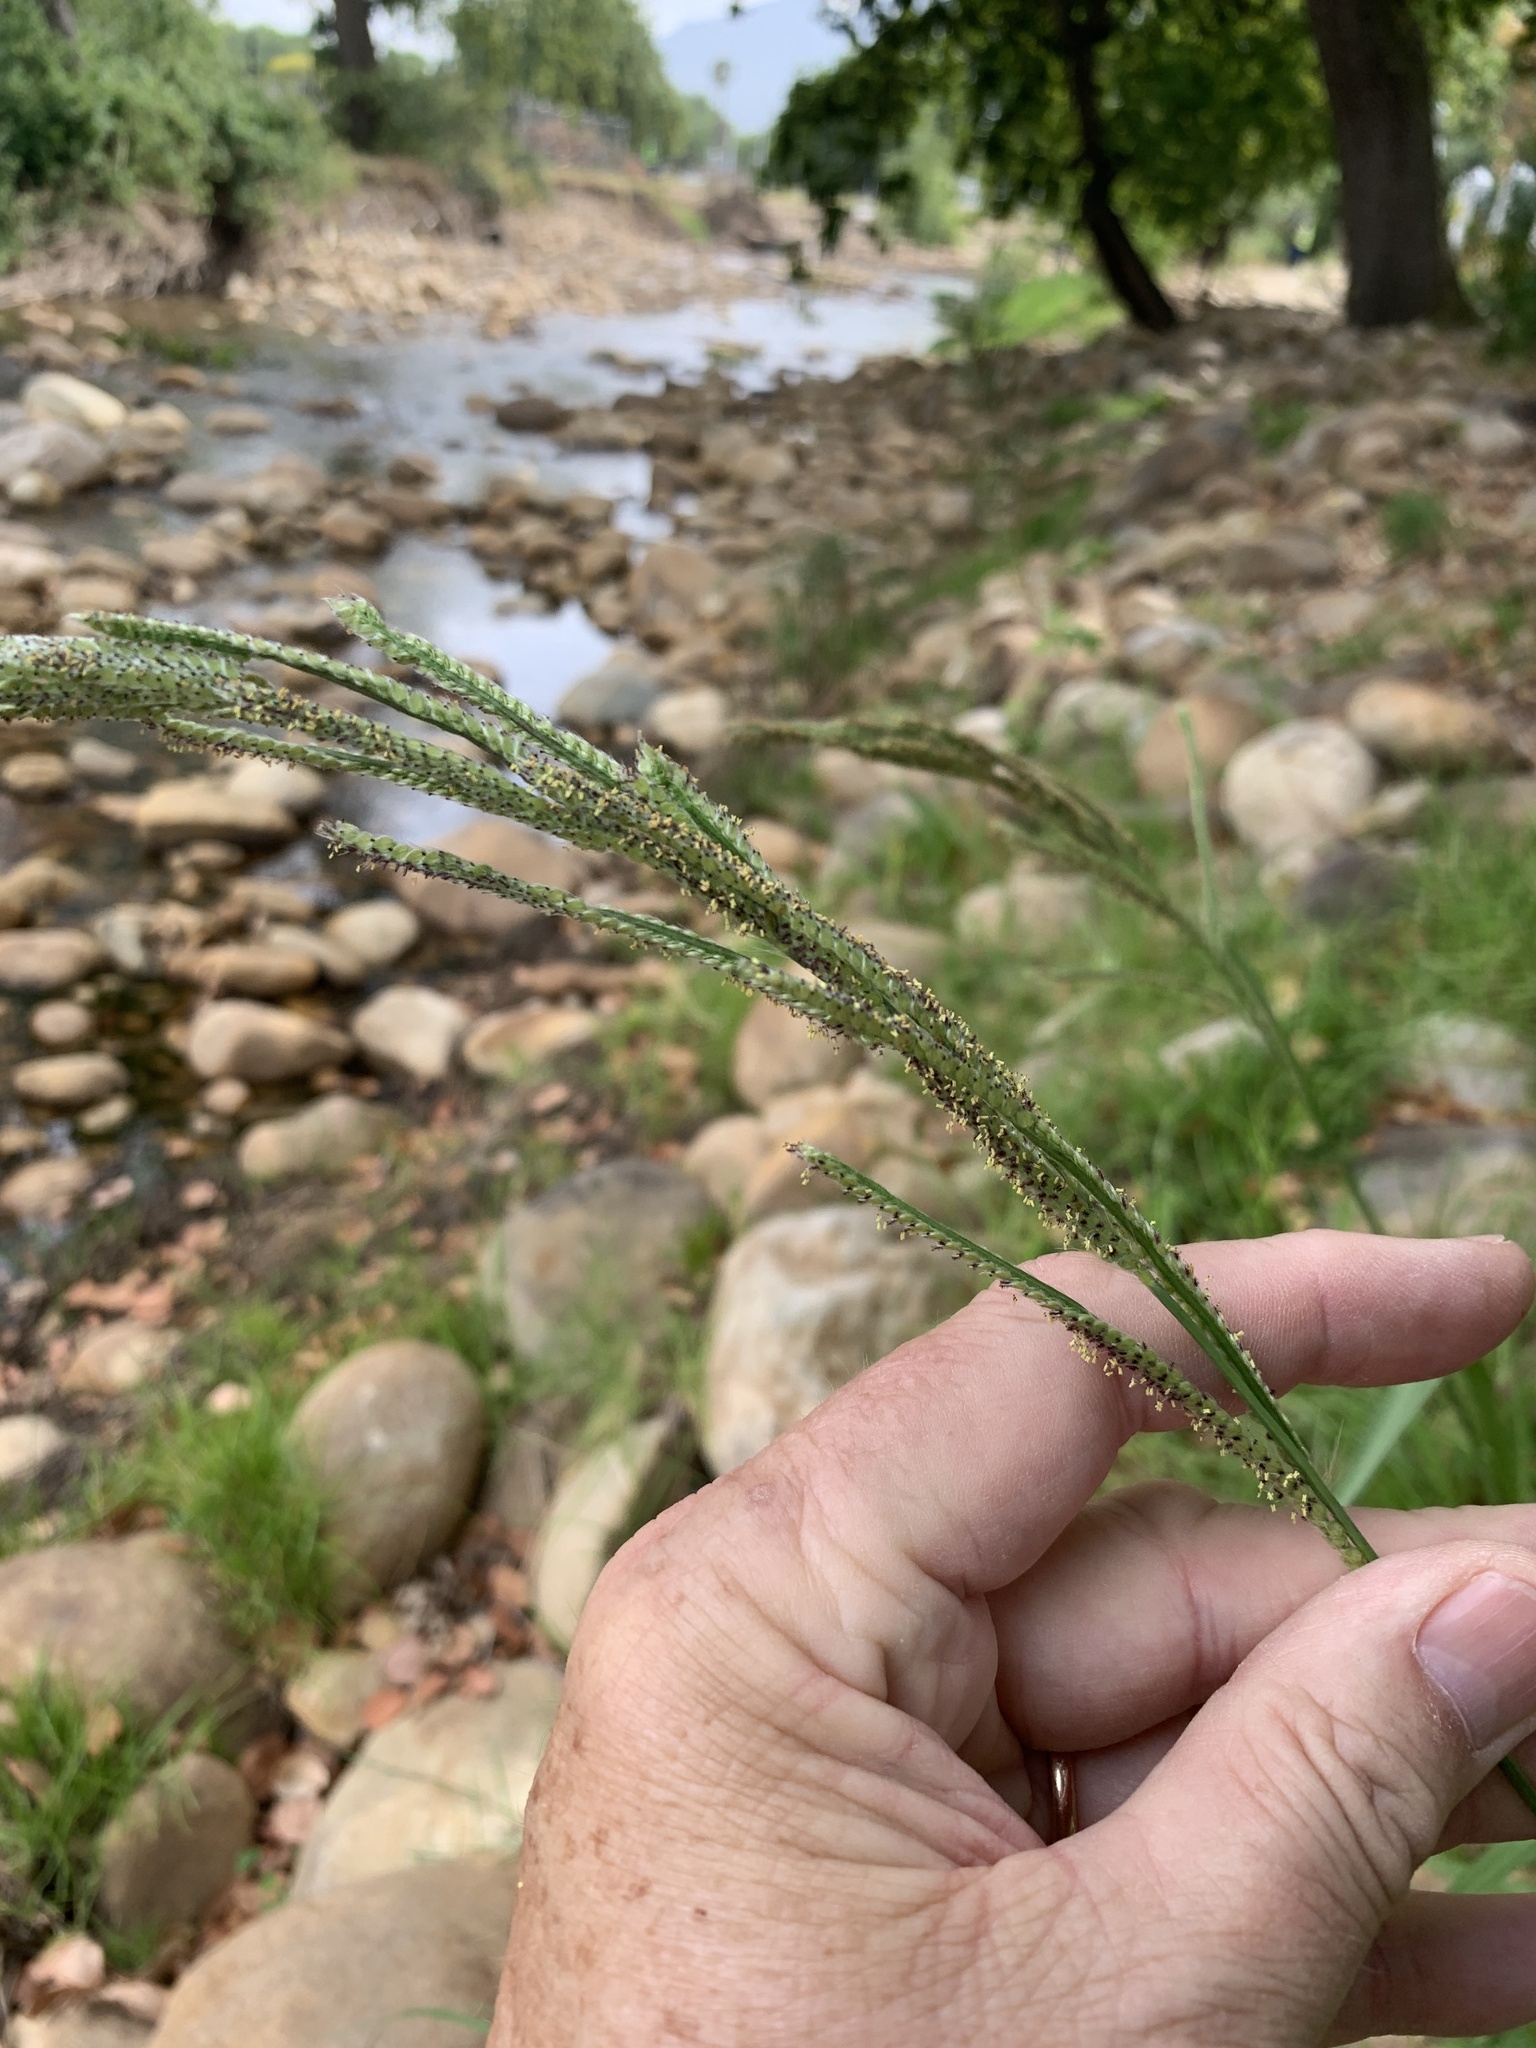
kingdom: Plantae
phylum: Tracheophyta
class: Liliopsida
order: Poales
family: Poaceae
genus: Paspalum
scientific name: Paspalum urvillei
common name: Vasey's grass
